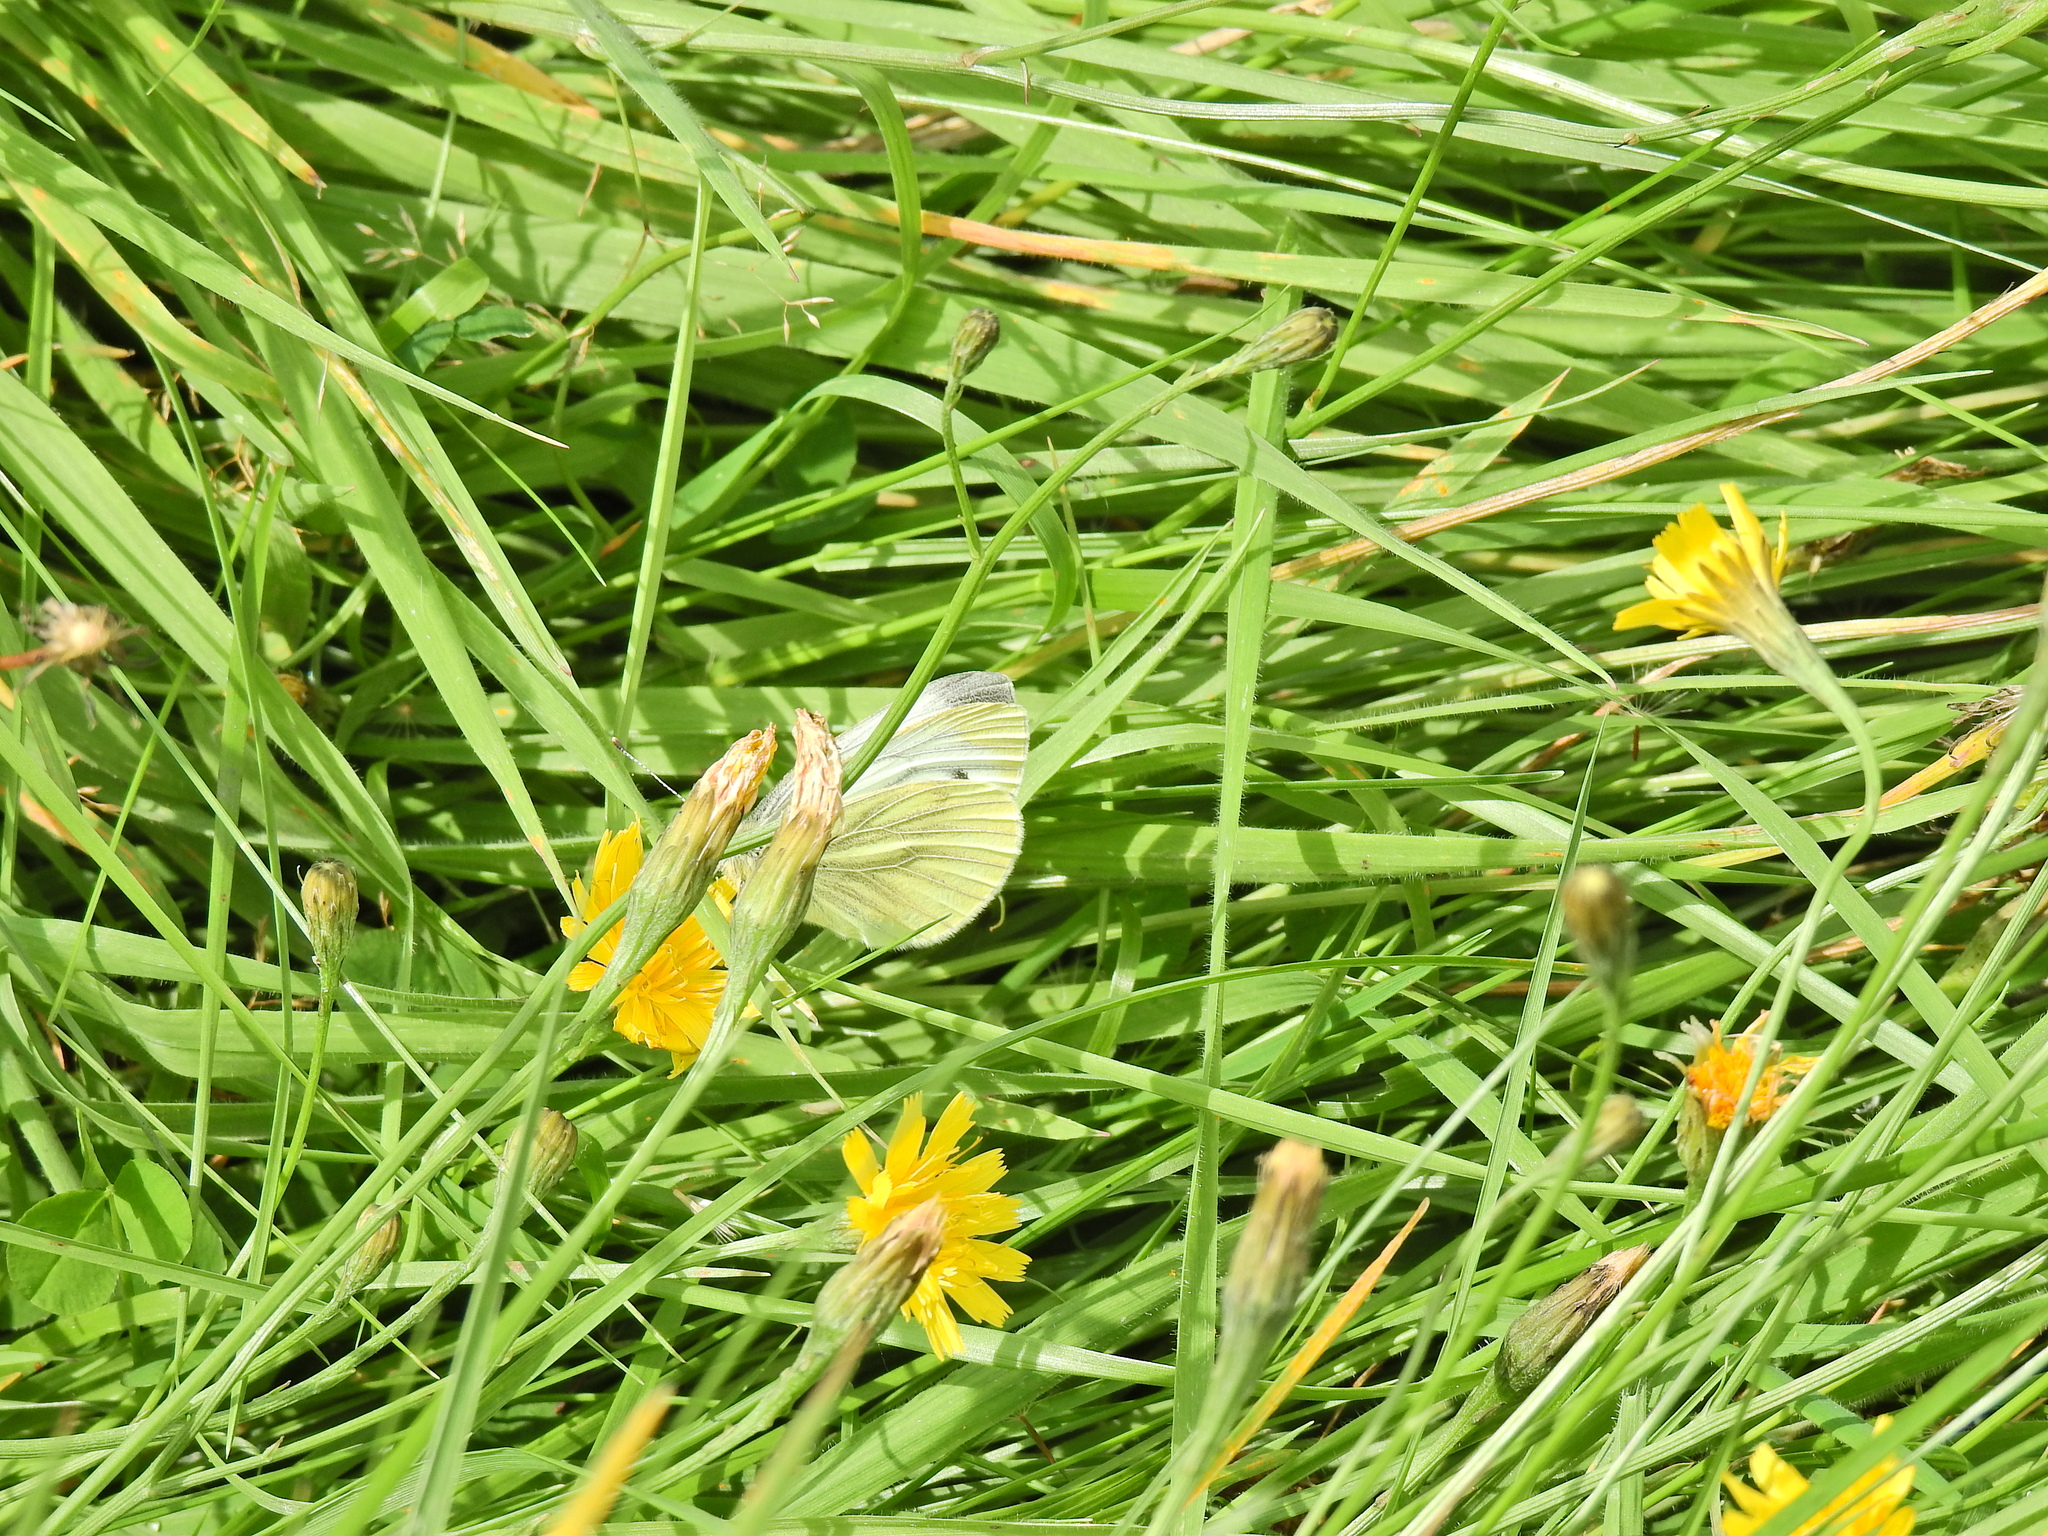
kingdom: Animalia
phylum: Arthropoda
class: Insecta
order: Lepidoptera
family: Pieridae
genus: Pieris
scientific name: Pieris napi
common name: Green-veined white
